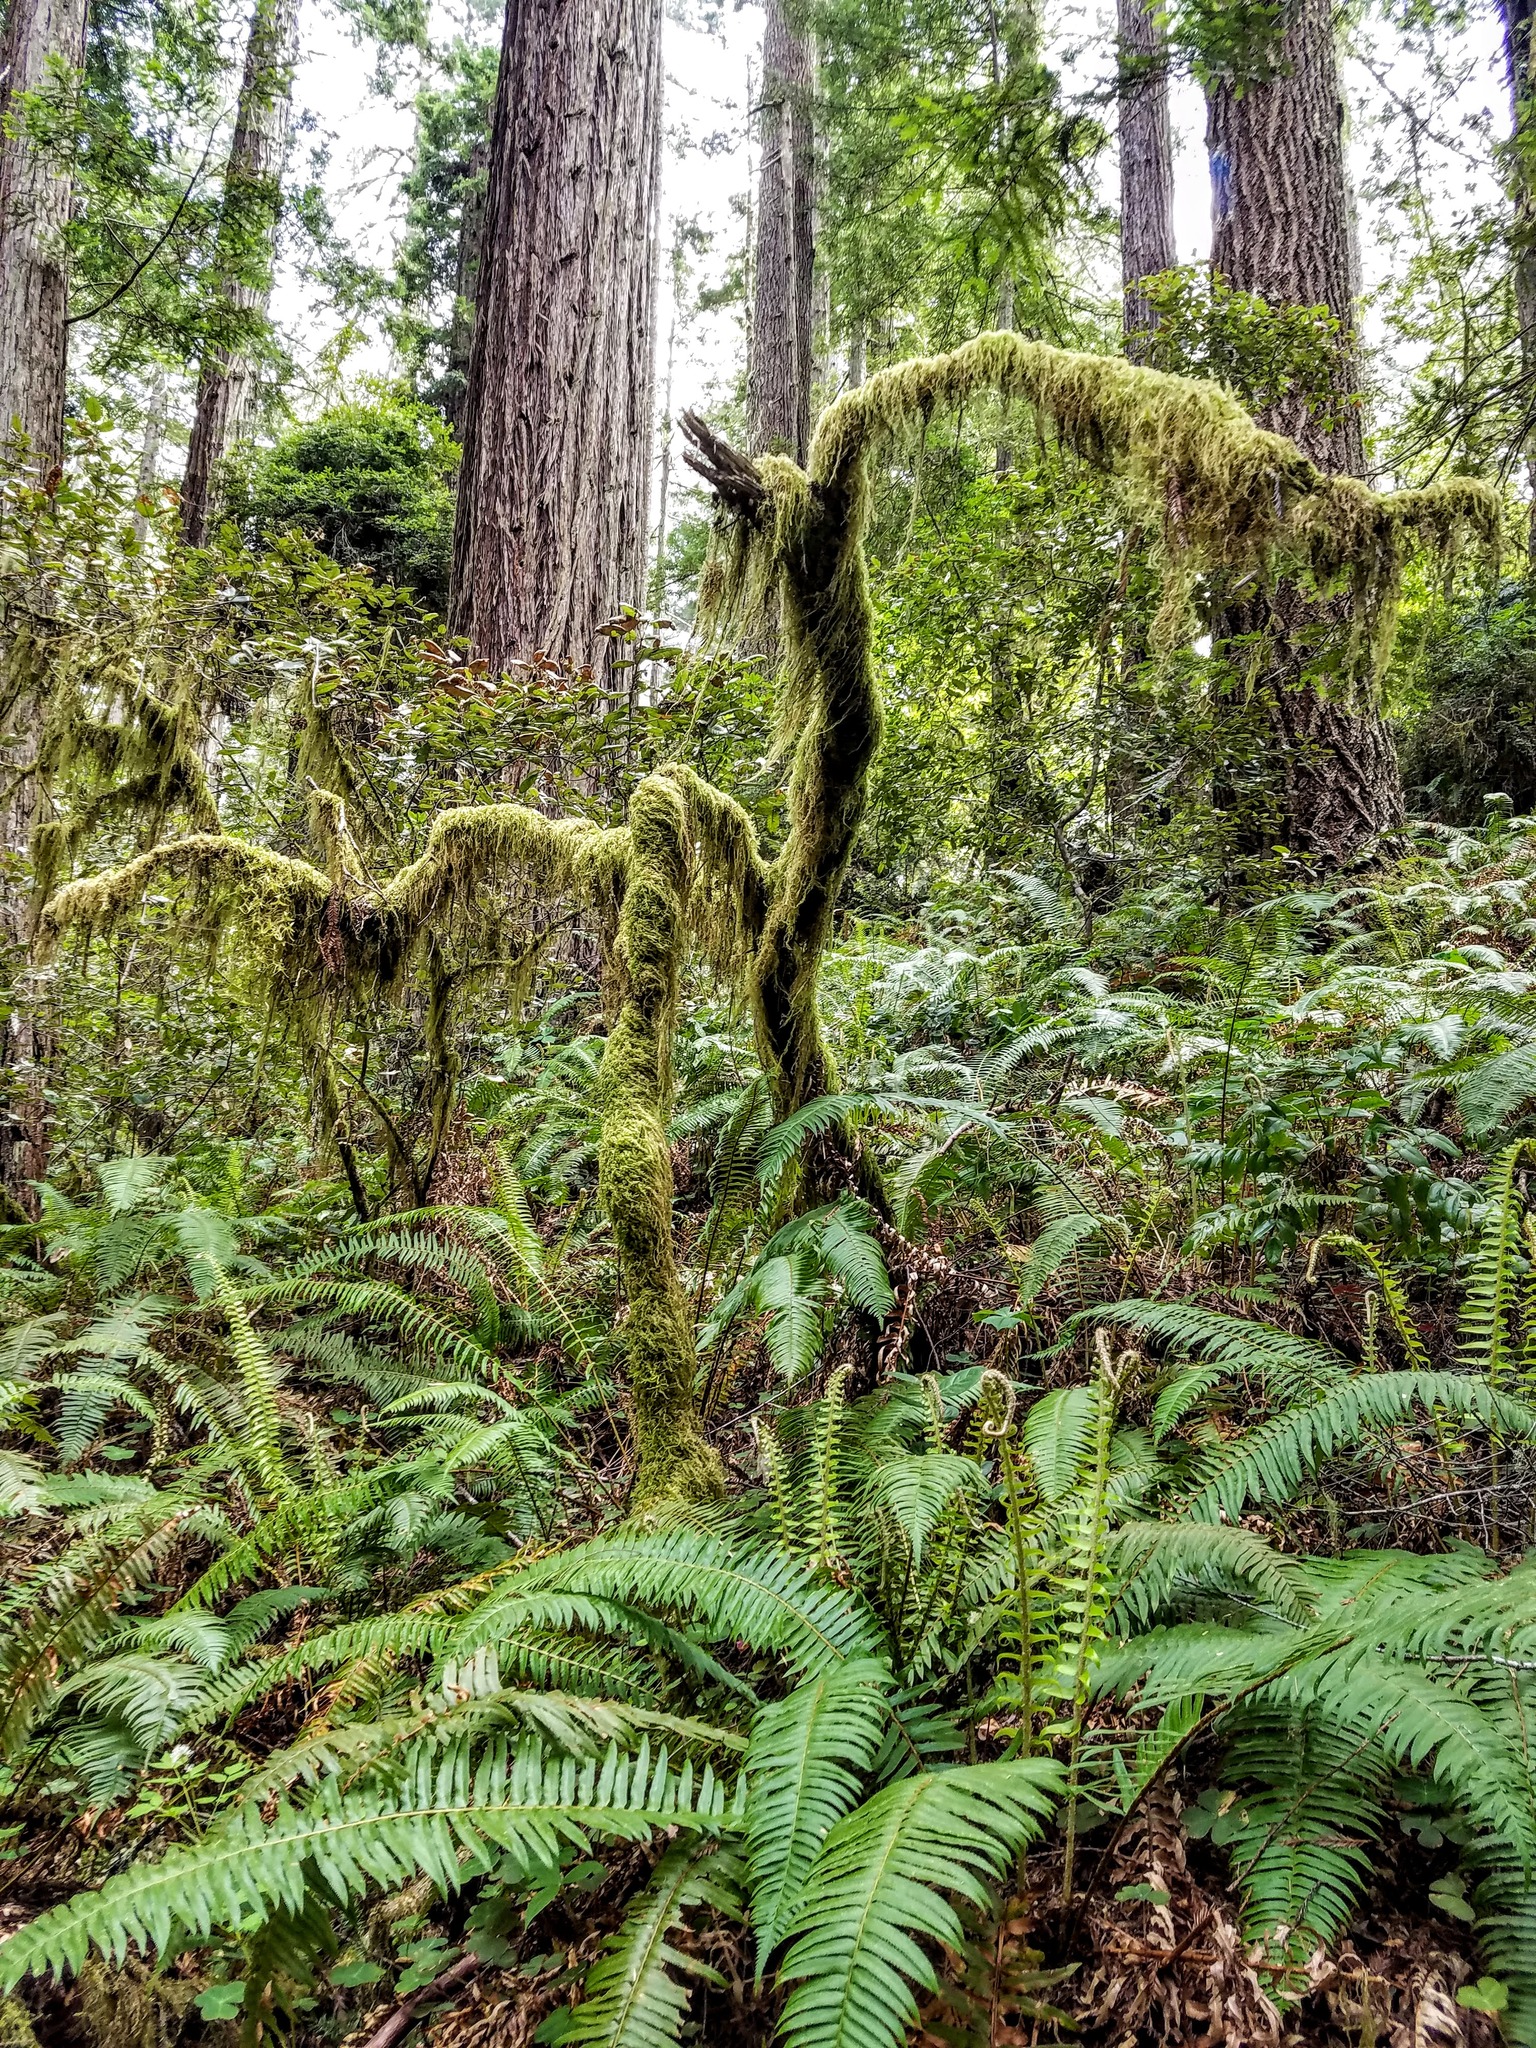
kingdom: Plantae
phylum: Tracheophyta
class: Polypodiopsida
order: Polypodiales
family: Dryopteridaceae
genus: Polystichum
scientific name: Polystichum munitum
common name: Western sword-fern
